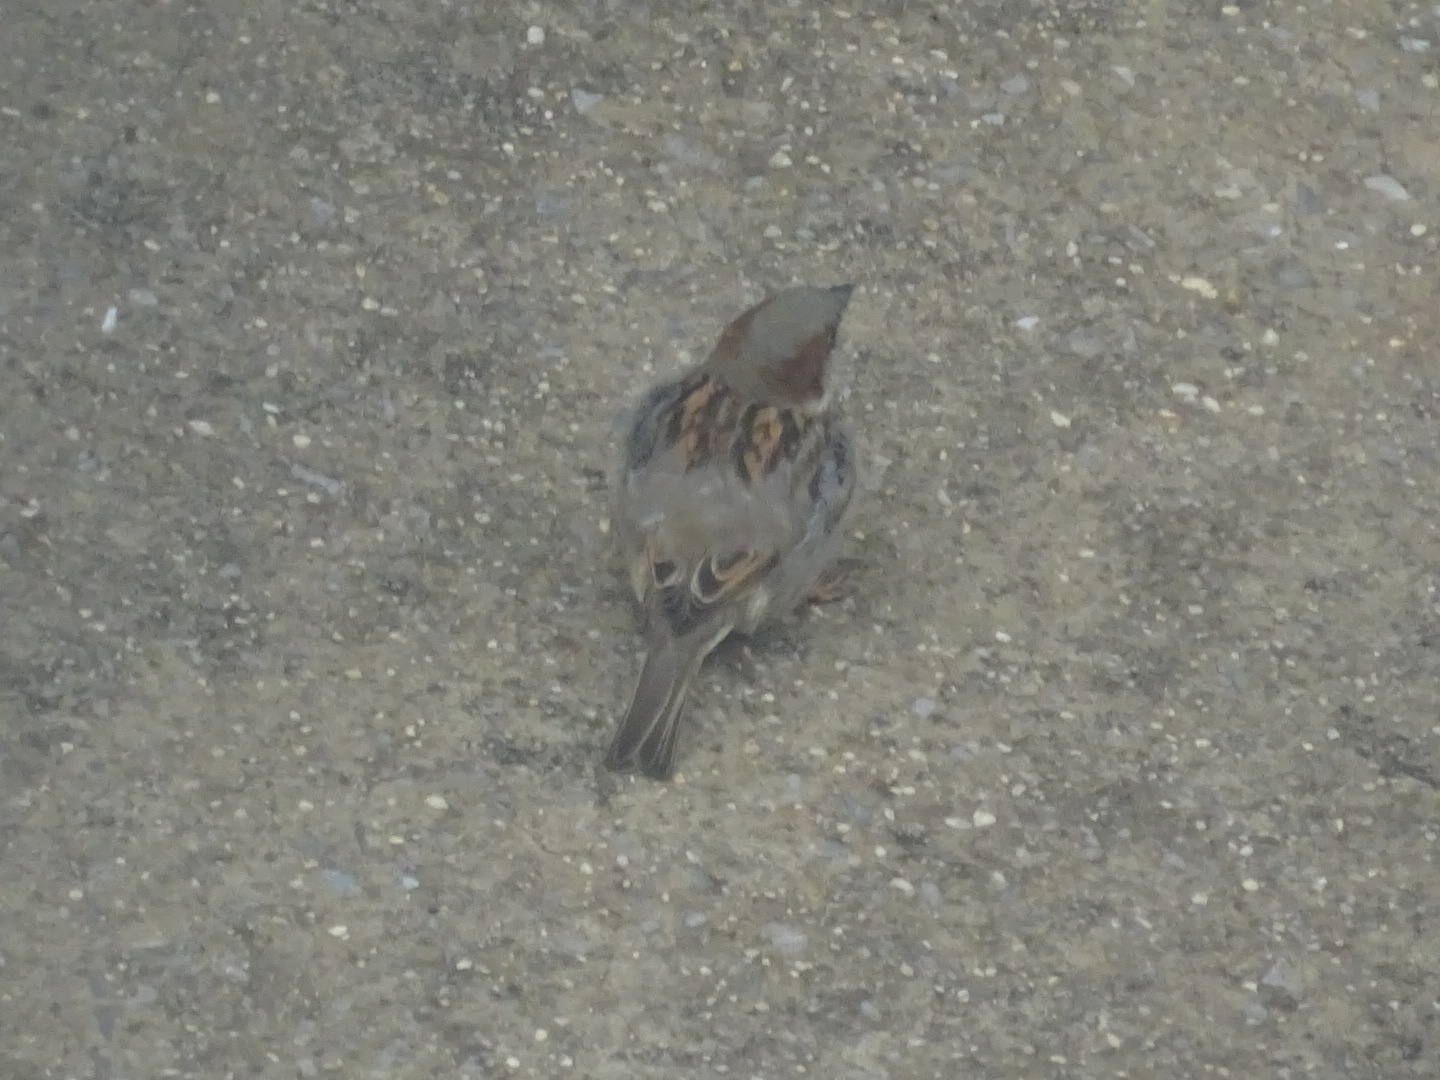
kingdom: Animalia
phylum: Chordata
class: Aves
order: Passeriformes
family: Passeridae
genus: Passer
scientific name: Passer domesticus
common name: House sparrow
